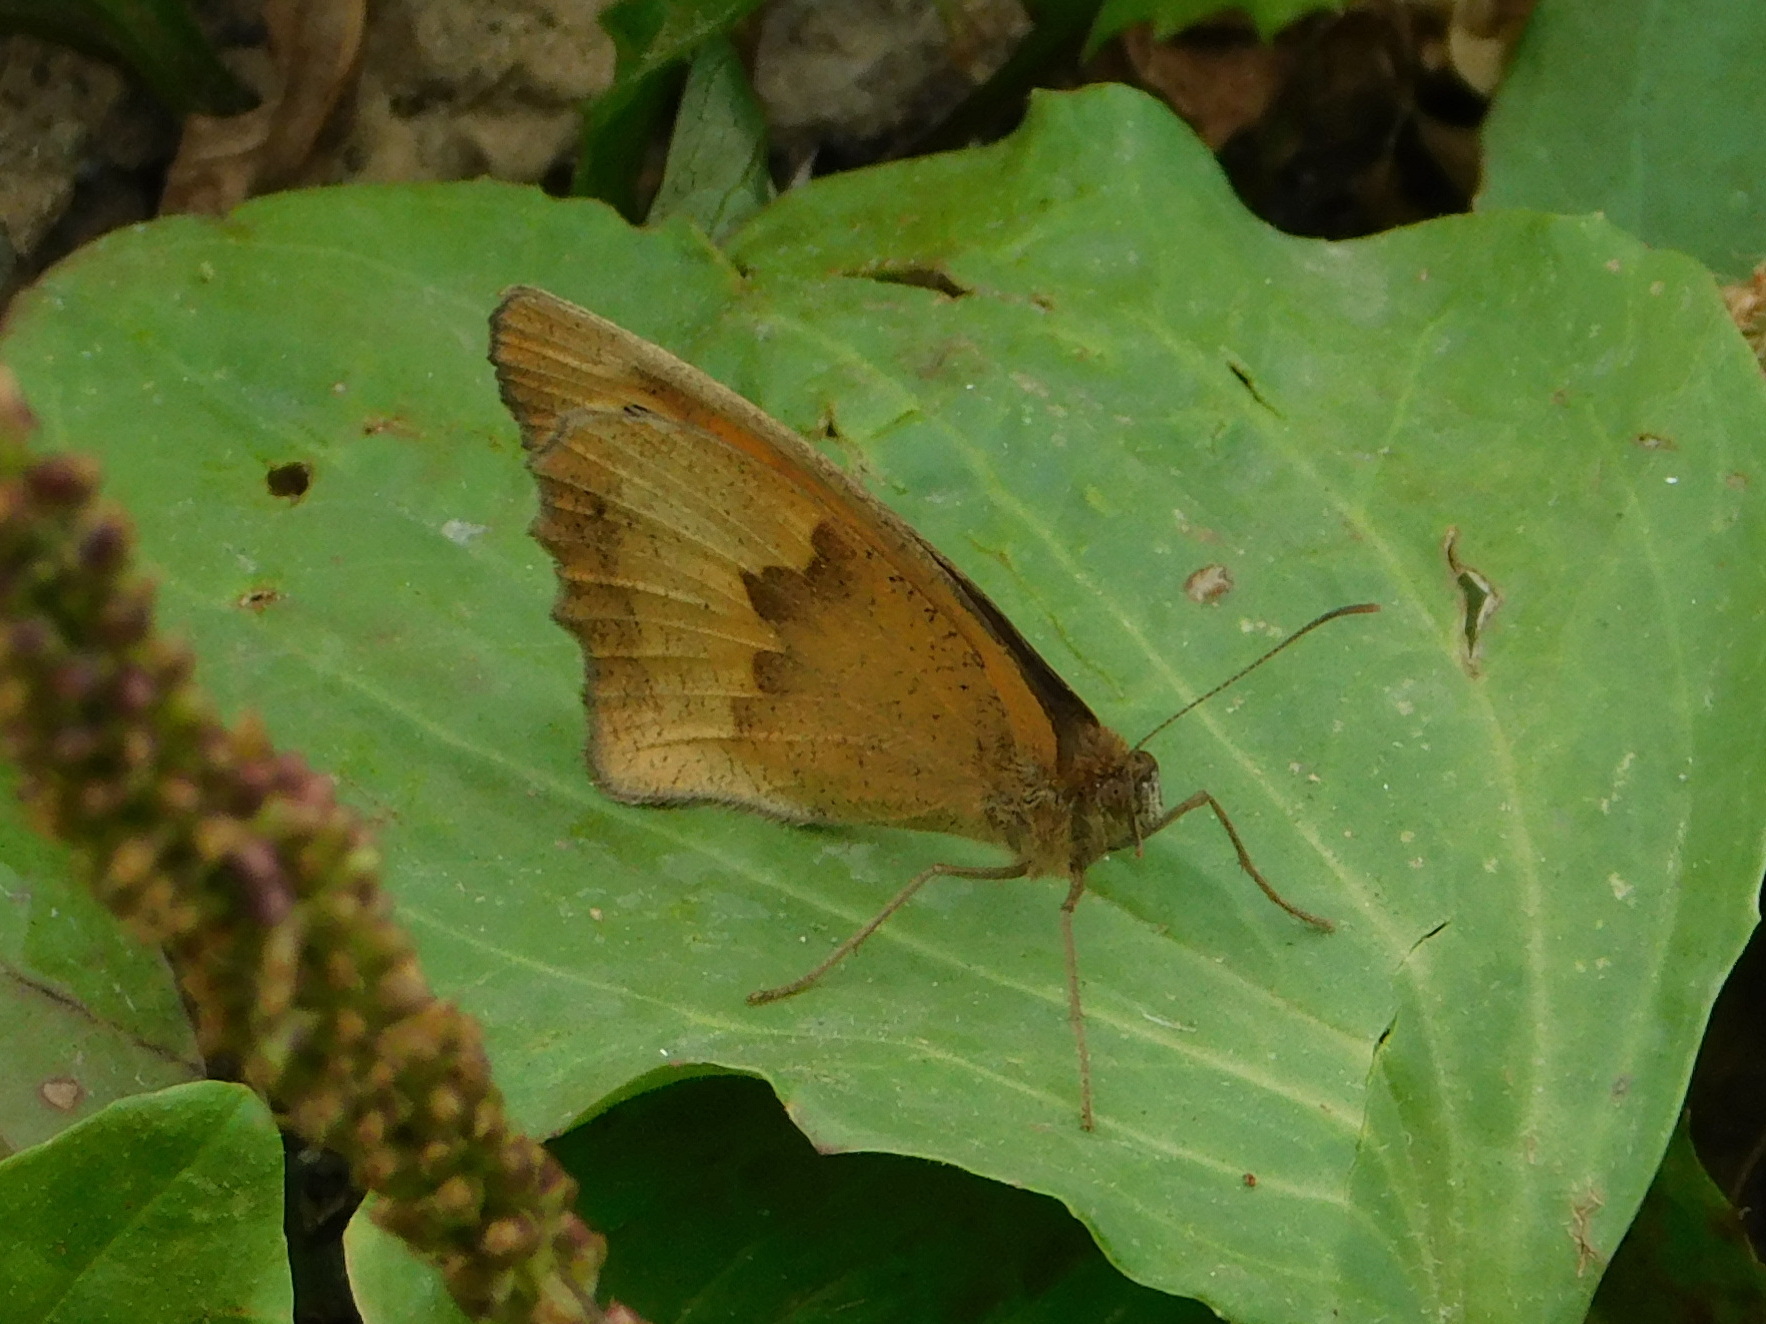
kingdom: Animalia
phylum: Arthropoda
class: Insecta
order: Lepidoptera
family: Nymphalidae
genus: Maniola
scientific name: Maniola jurtina
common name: Meadow brown
